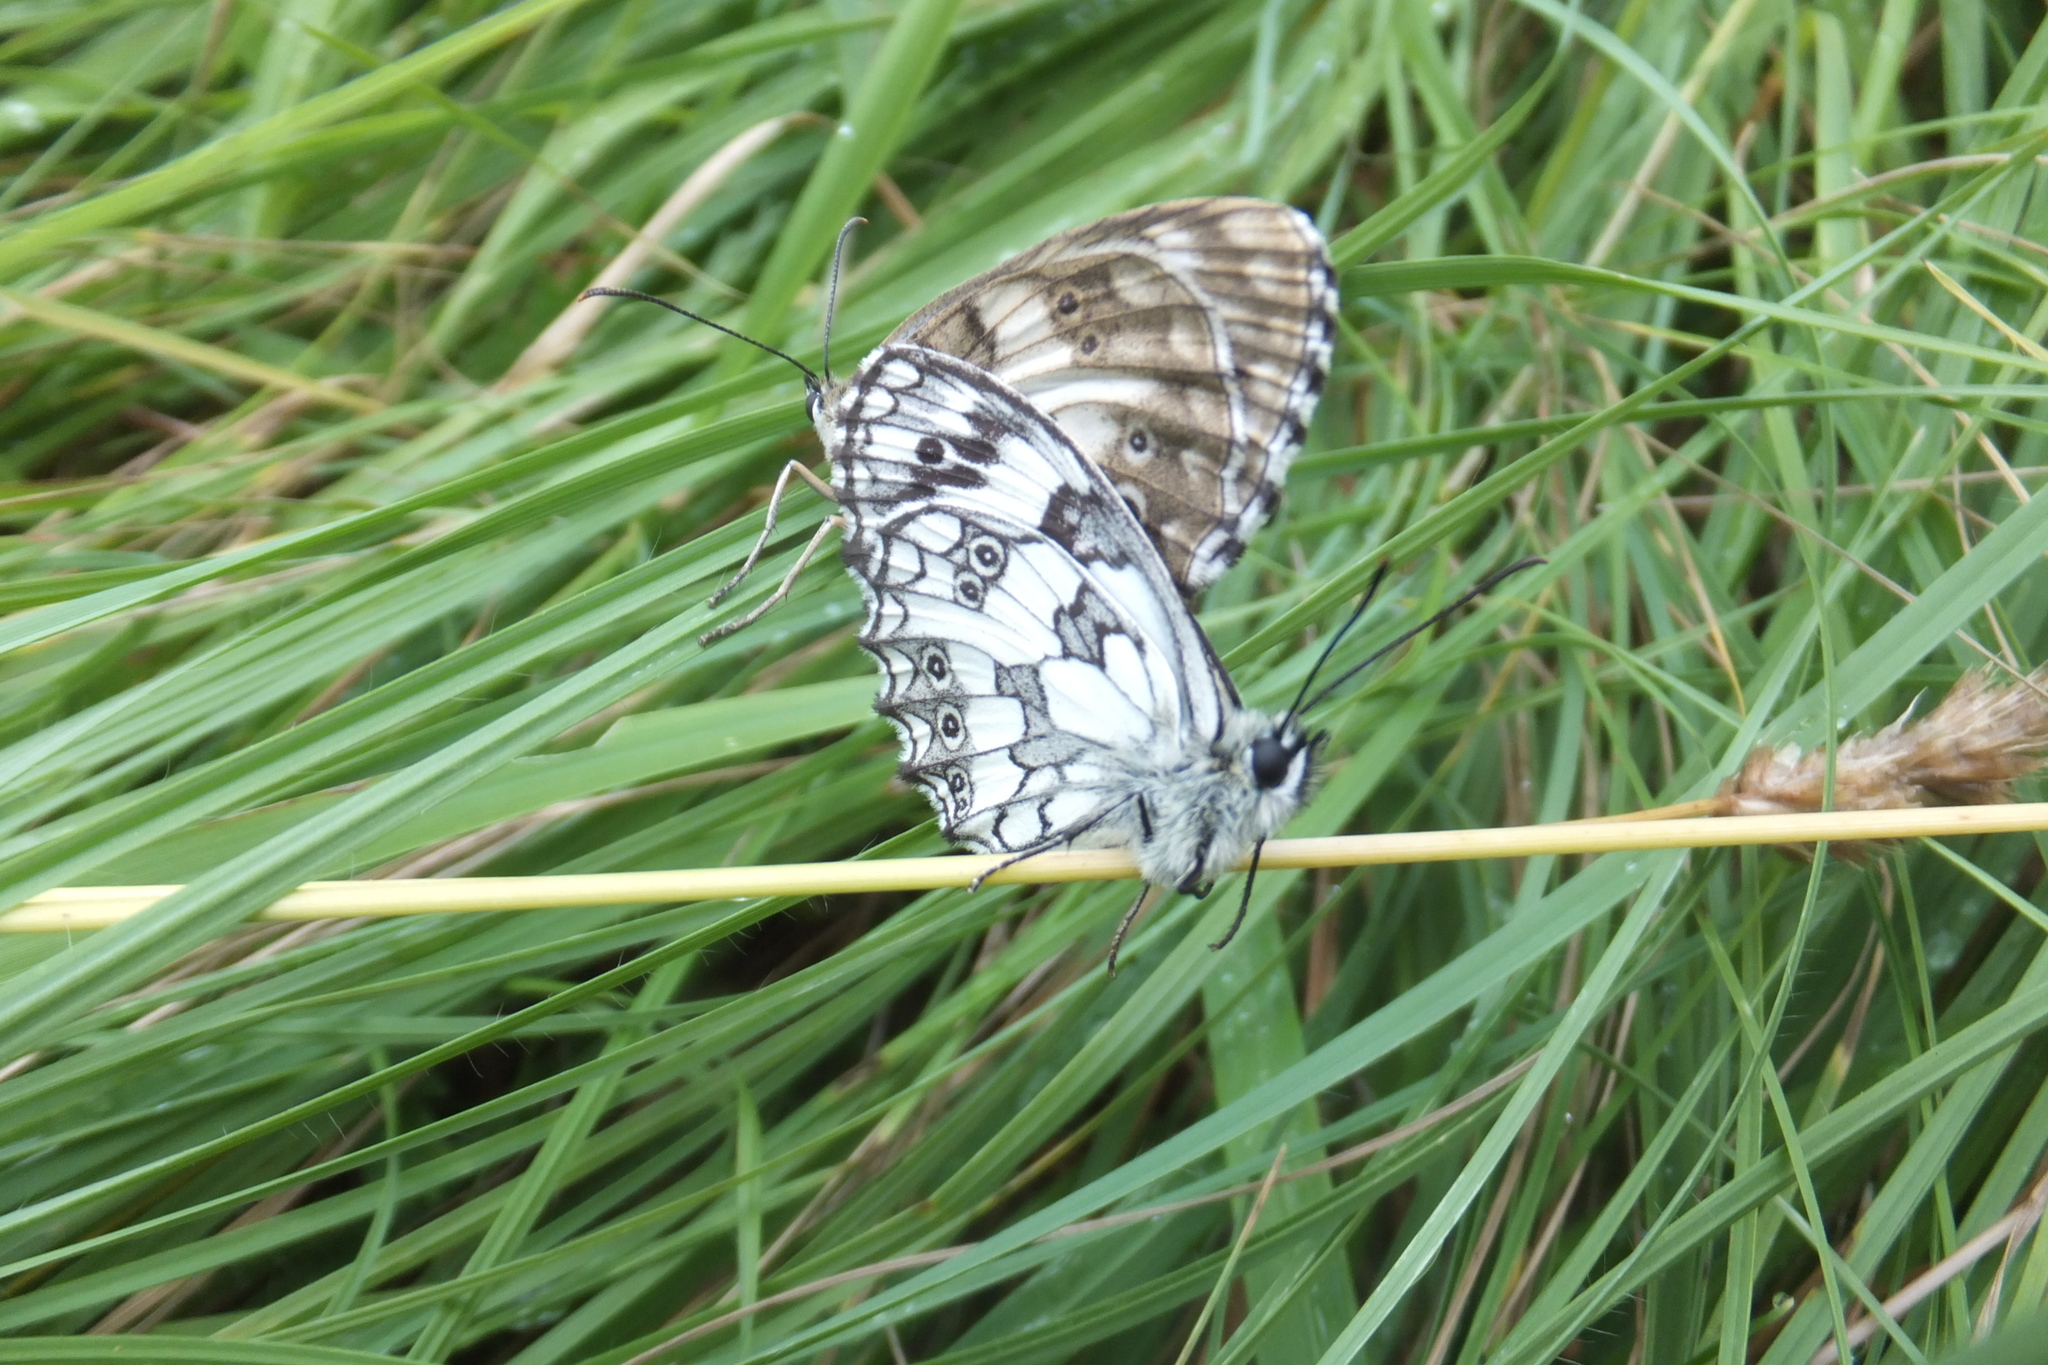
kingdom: Animalia
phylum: Arthropoda
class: Insecta
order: Lepidoptera
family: Nymphalidae
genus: Melanargia
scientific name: Melanargia galathea
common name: Marbled white
